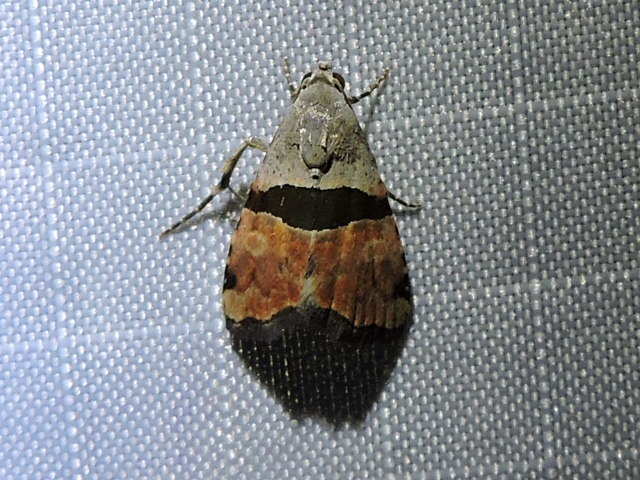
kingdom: Animalia
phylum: Arthropoda
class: Insecta
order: Lepidoptera
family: Noctuidae
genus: Cobubatha
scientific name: Cobubatha lixiva
